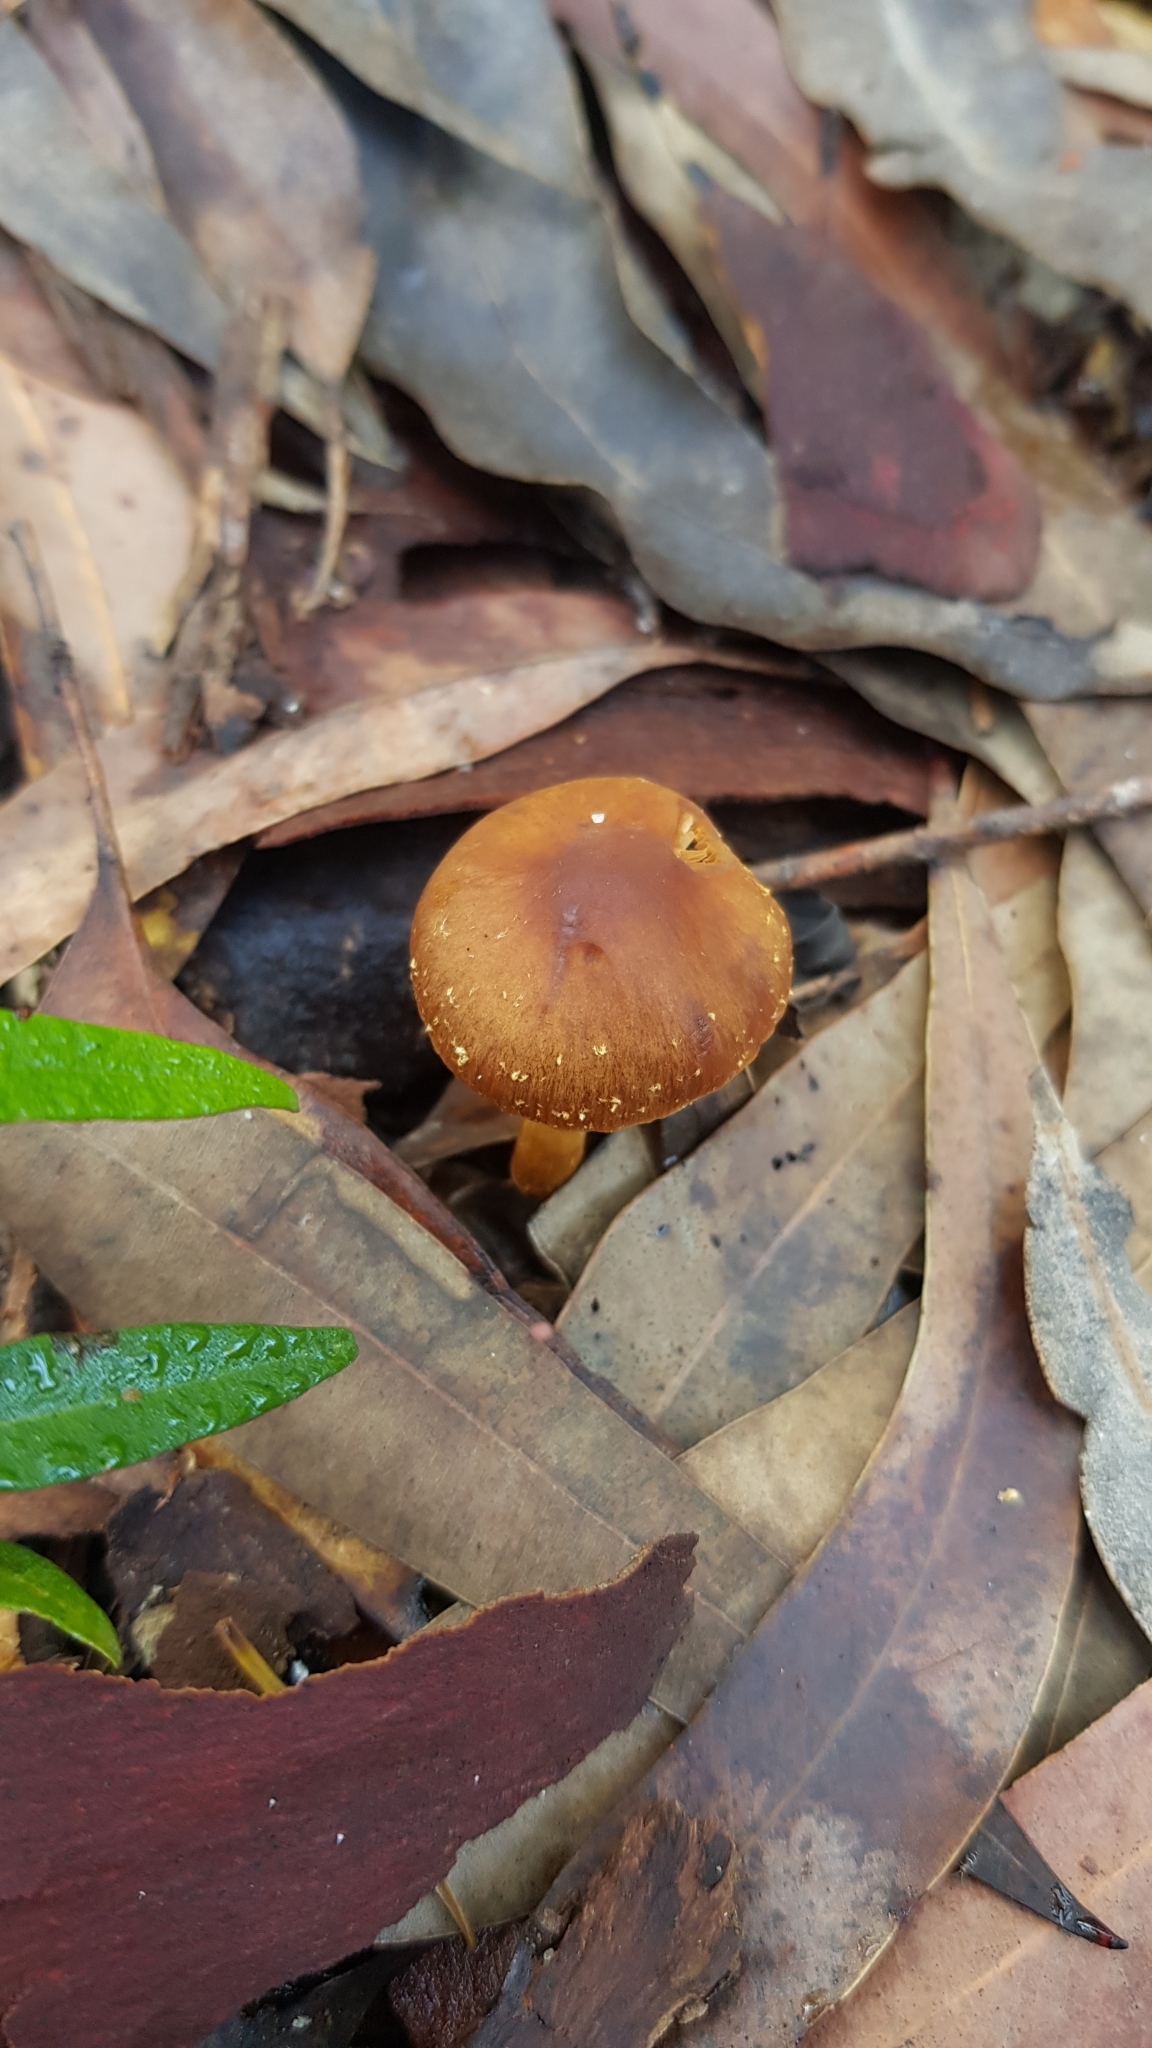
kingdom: Fungi
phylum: Basidiomycota
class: Agaricomycetes
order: Agaricales
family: Bolbitiaceae
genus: Descolea
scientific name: Descolea recedens
